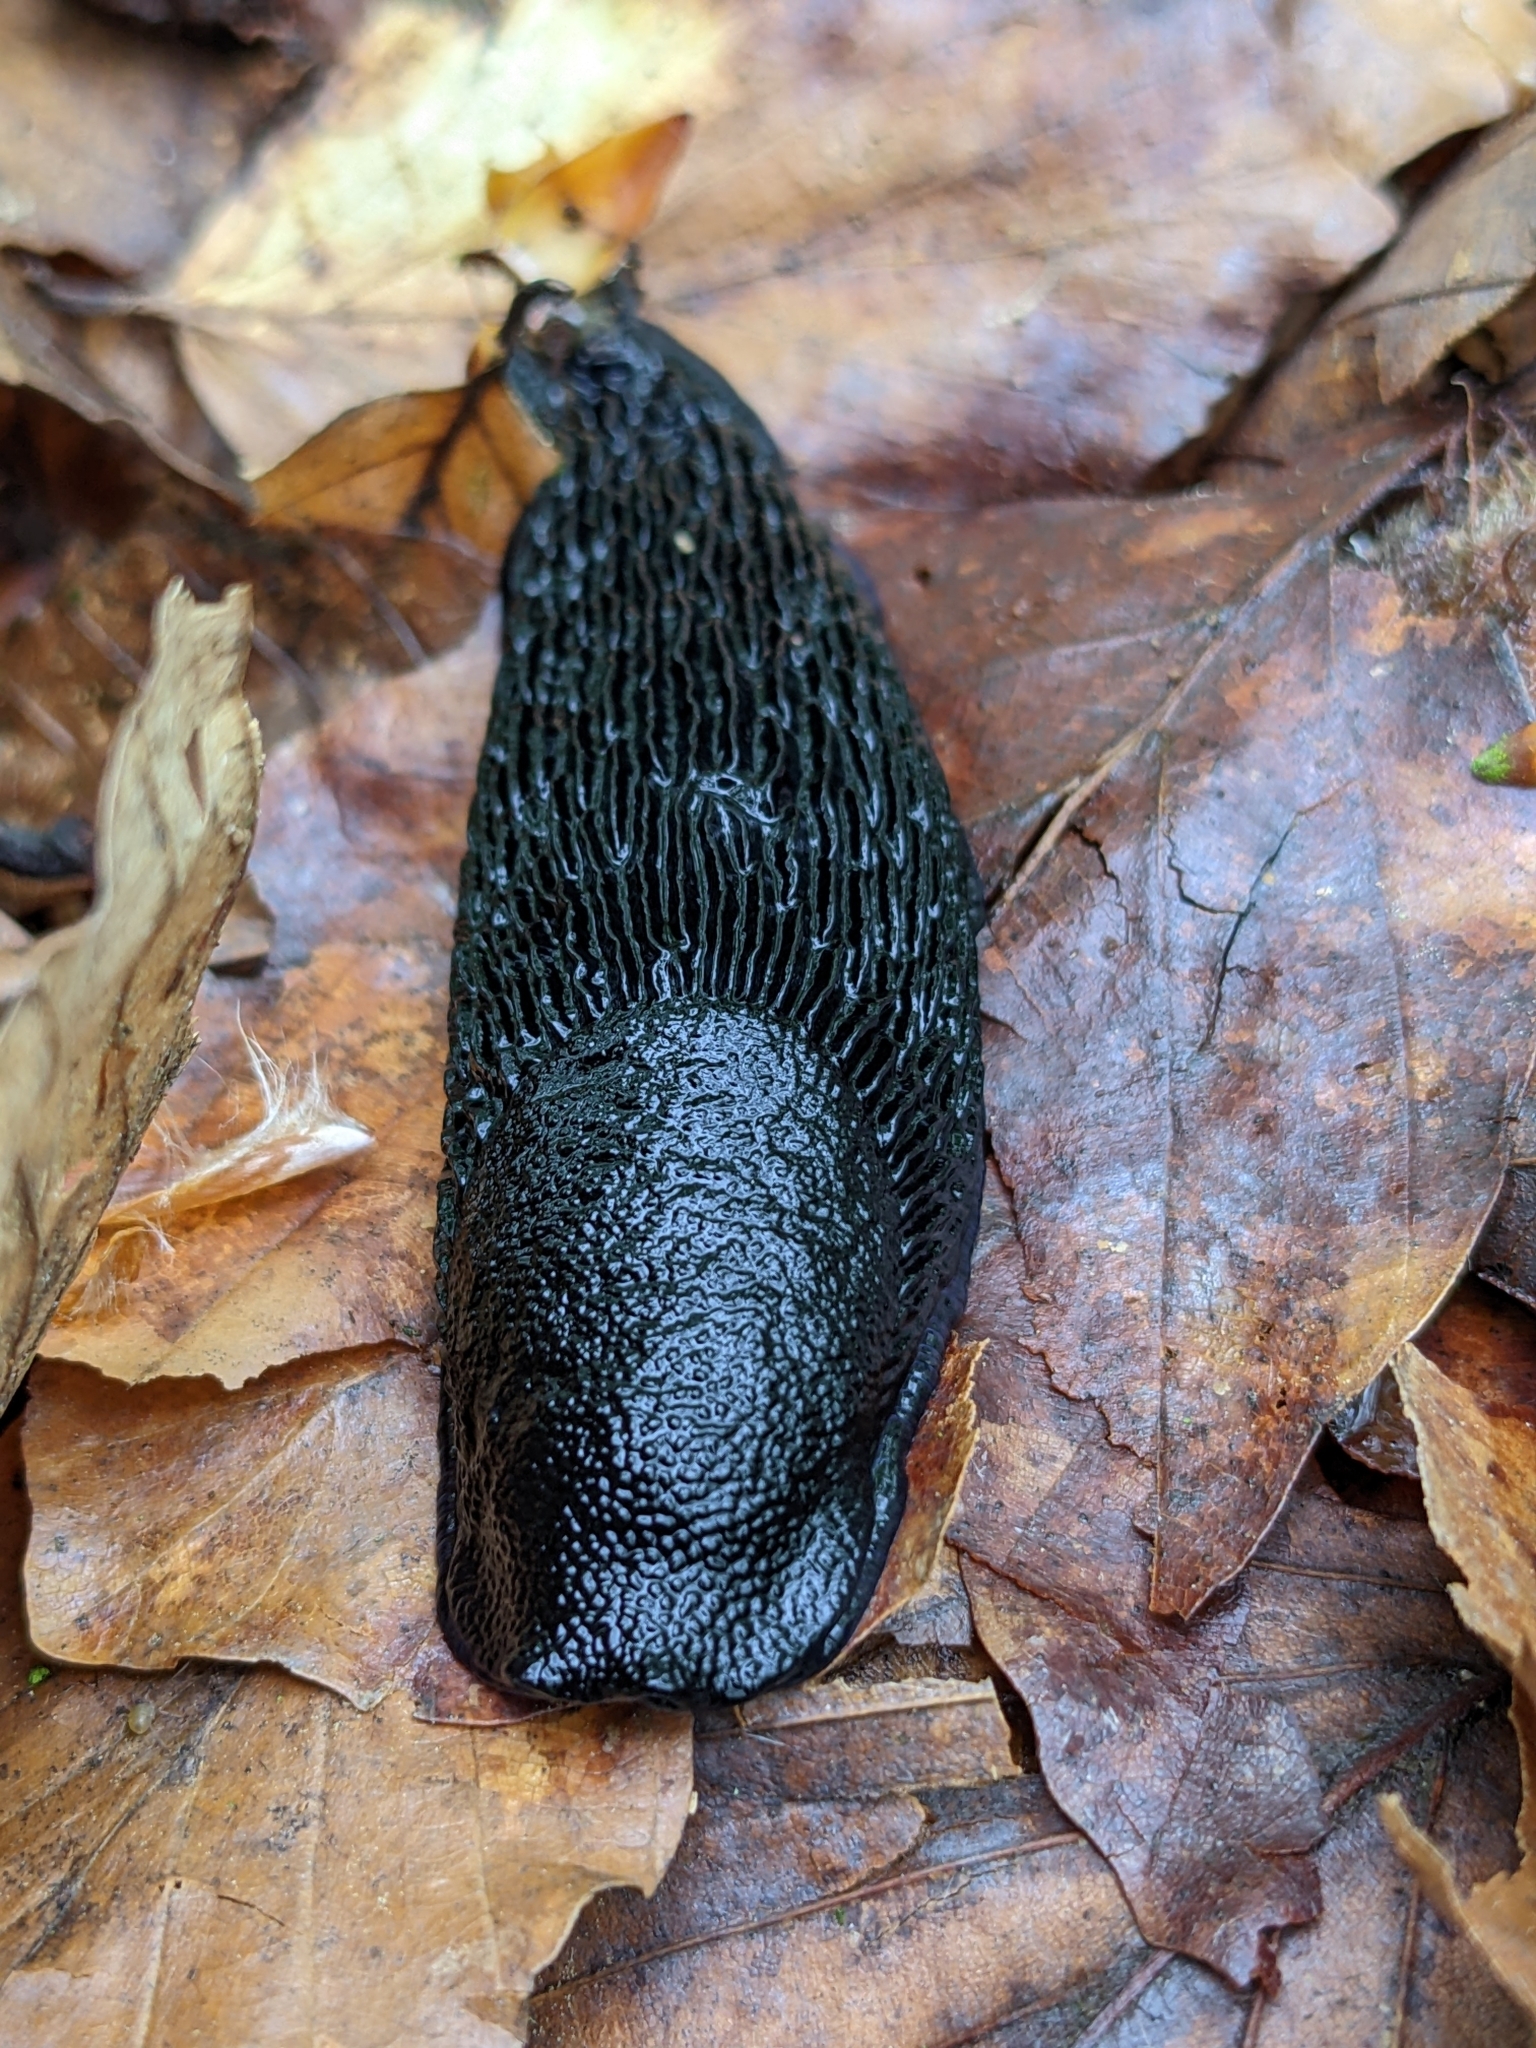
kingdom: Animalia
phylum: Mollusca
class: Gastropoda
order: Stylommatophora
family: Arionidae
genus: Arion
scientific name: Arion ater
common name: Black arion
